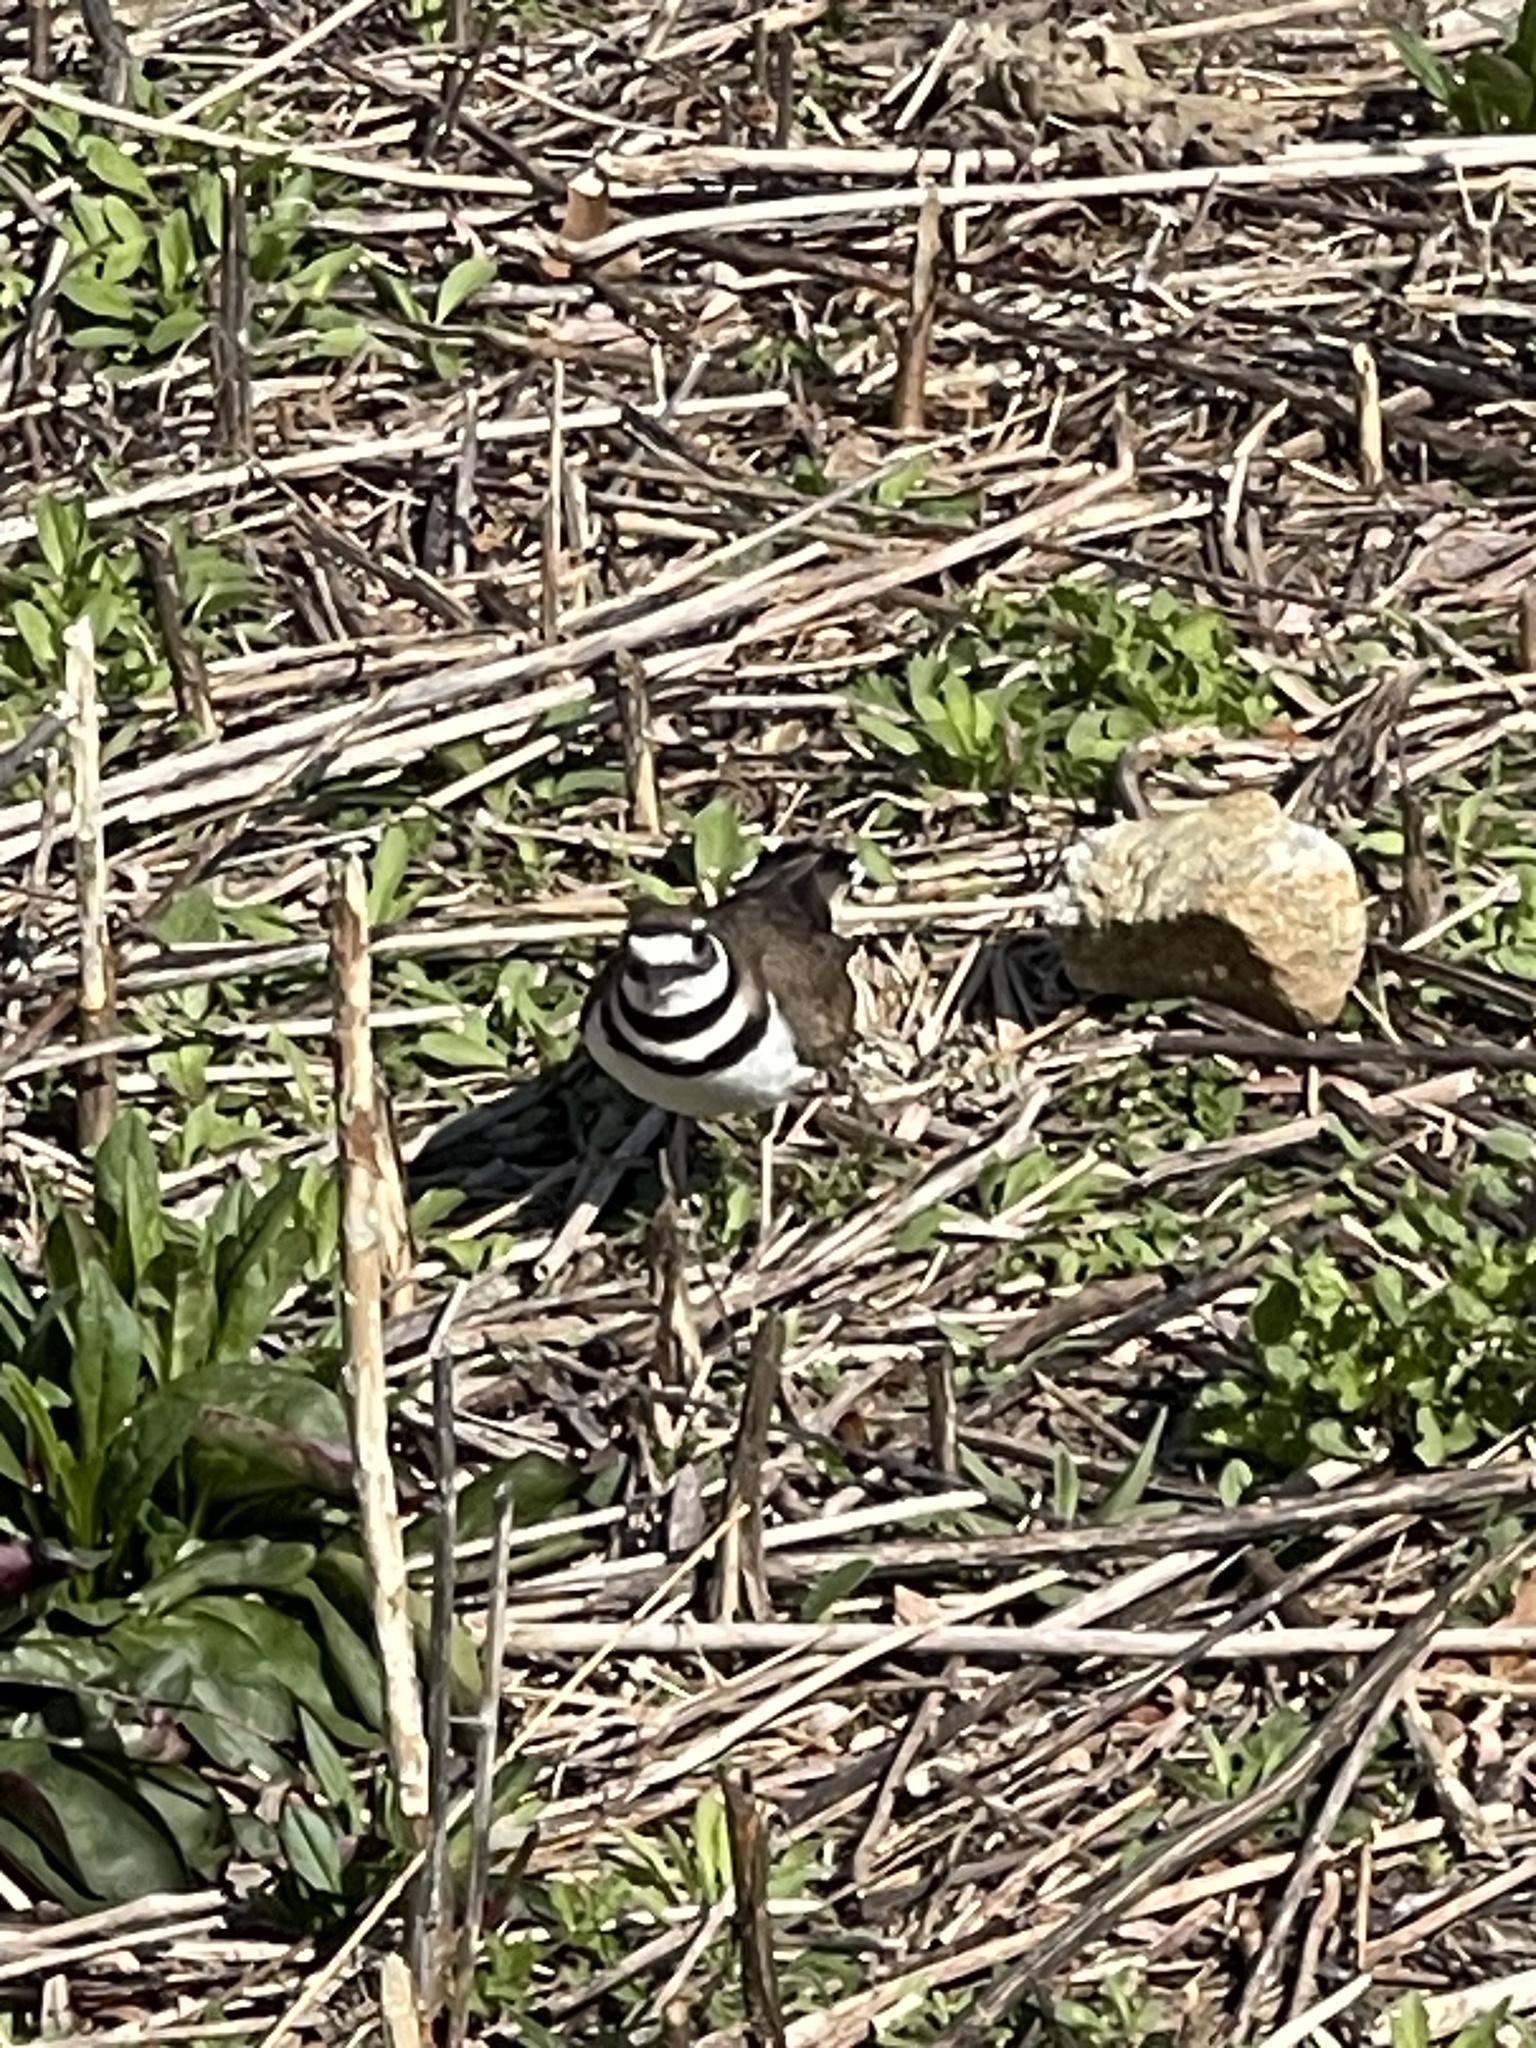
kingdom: Animalia
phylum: Chordata
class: Aves
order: Charadriiformes
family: Charadriidae
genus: Charadrius
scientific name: Charadrius vociferus
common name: Killdeer
